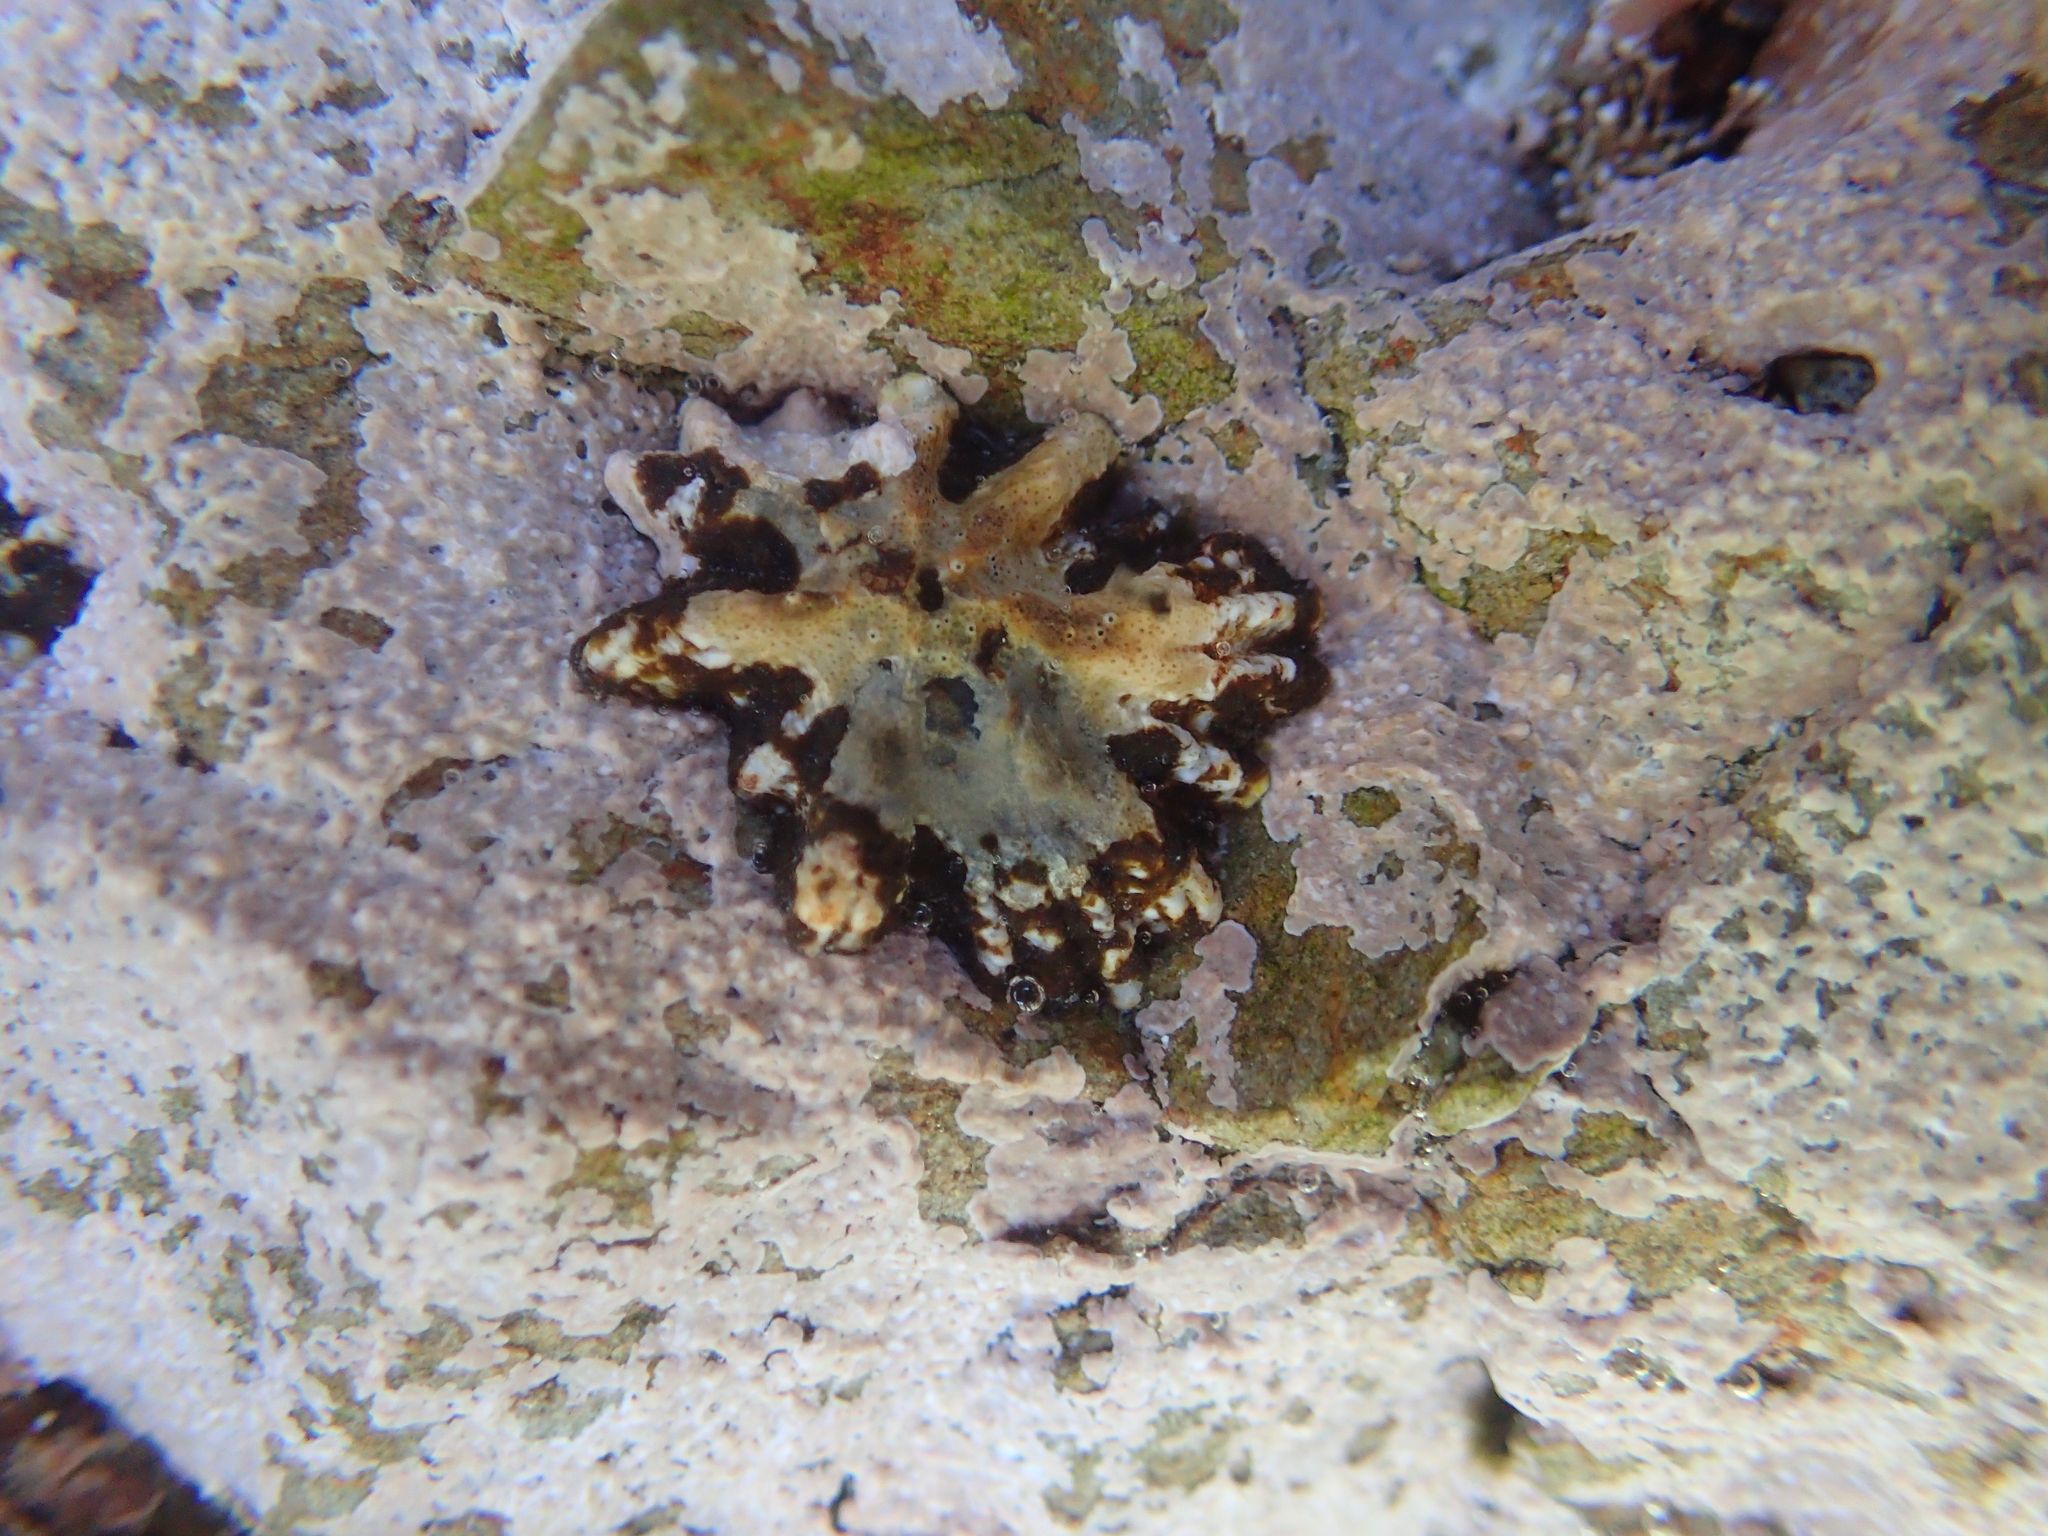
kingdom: Animalia
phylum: Mollusca
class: Gastropoda
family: Lottiidae
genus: Patelloida
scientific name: Patelloida corticata
